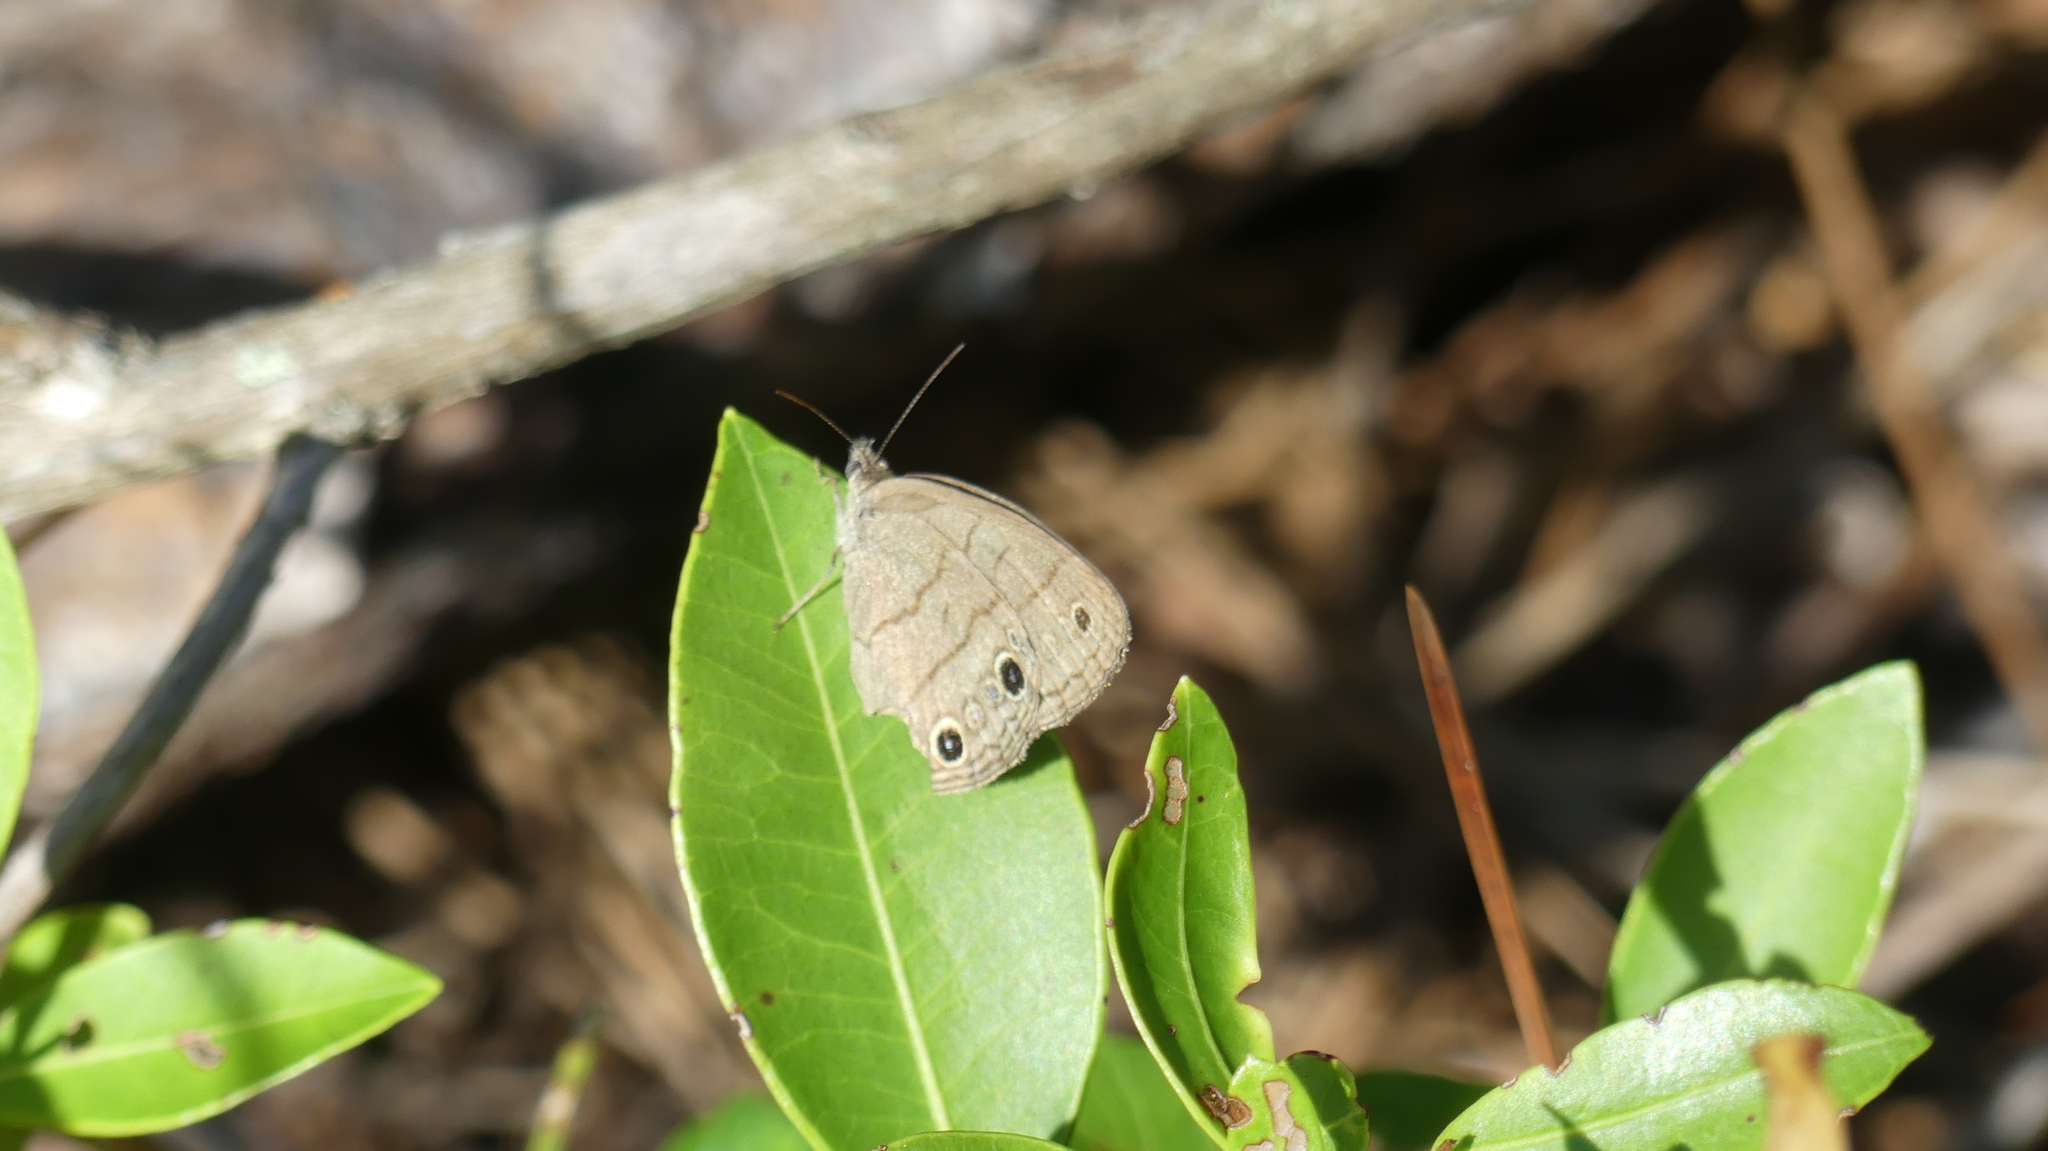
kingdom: Animalia
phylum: Arthropoda
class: Insecta
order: Lepidoptera
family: Nymphalidae
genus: Hermeuptychia
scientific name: Hermeuptychia hermes
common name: Hermes satyr
